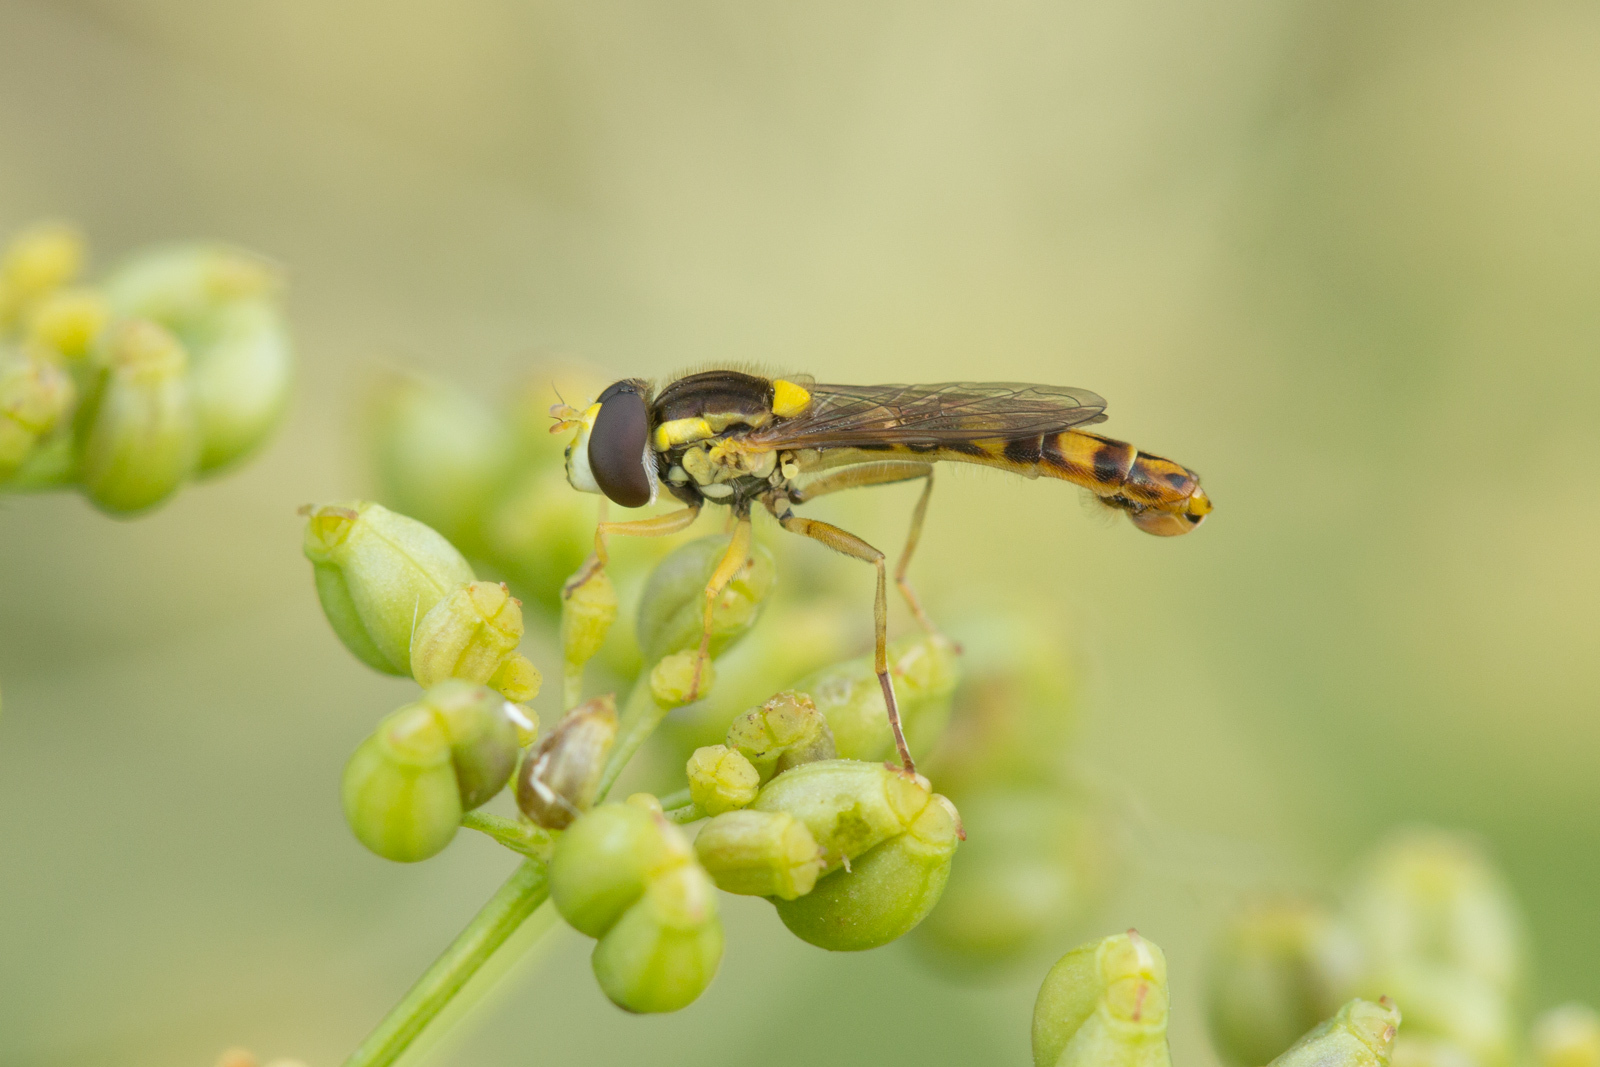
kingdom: Animalia
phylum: Arthropoda
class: Insecta
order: Diptera
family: Syrphidae
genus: Sphaerophoria
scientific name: Sphaerophoria scripta
